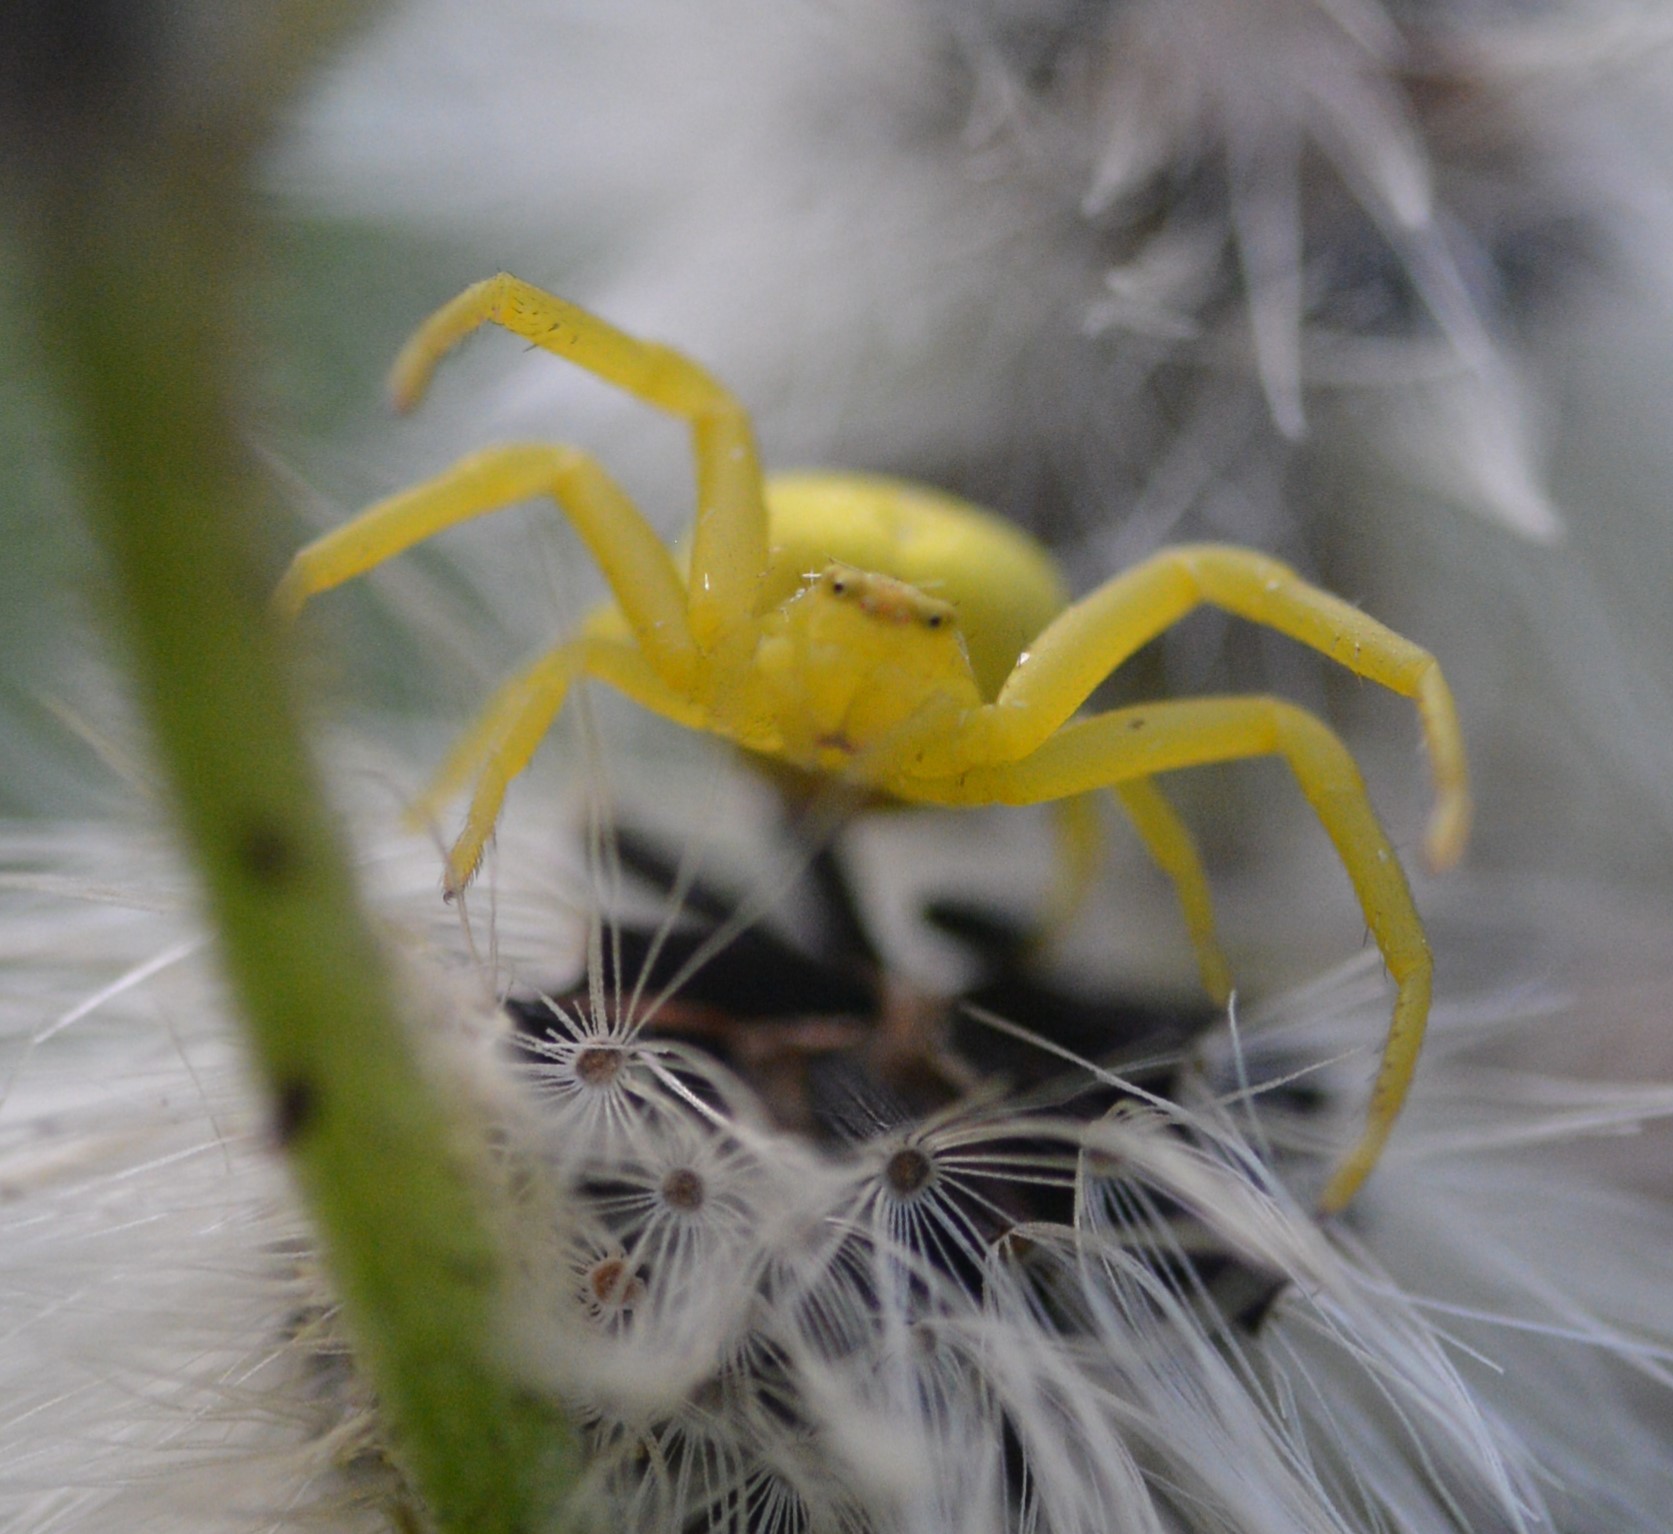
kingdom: Animalia
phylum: Arthropoda
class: Arachnida
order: Araneae
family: Thomisidae
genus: Misumena
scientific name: Misumena vatia
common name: Goldenrod crab spider
